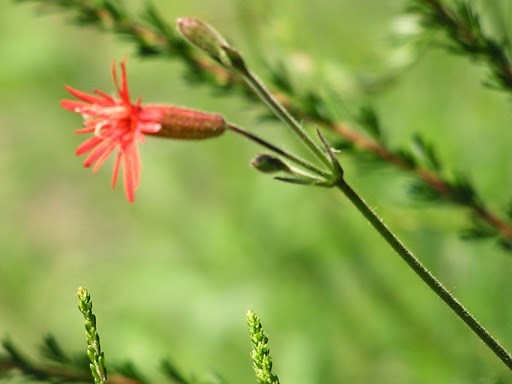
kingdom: Plantae
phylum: Tracheophyta
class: Magnoliopsida
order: Caryophyllales
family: Caryophyllaceae
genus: Silene
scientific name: Silene laciniata
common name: Indian-pink
